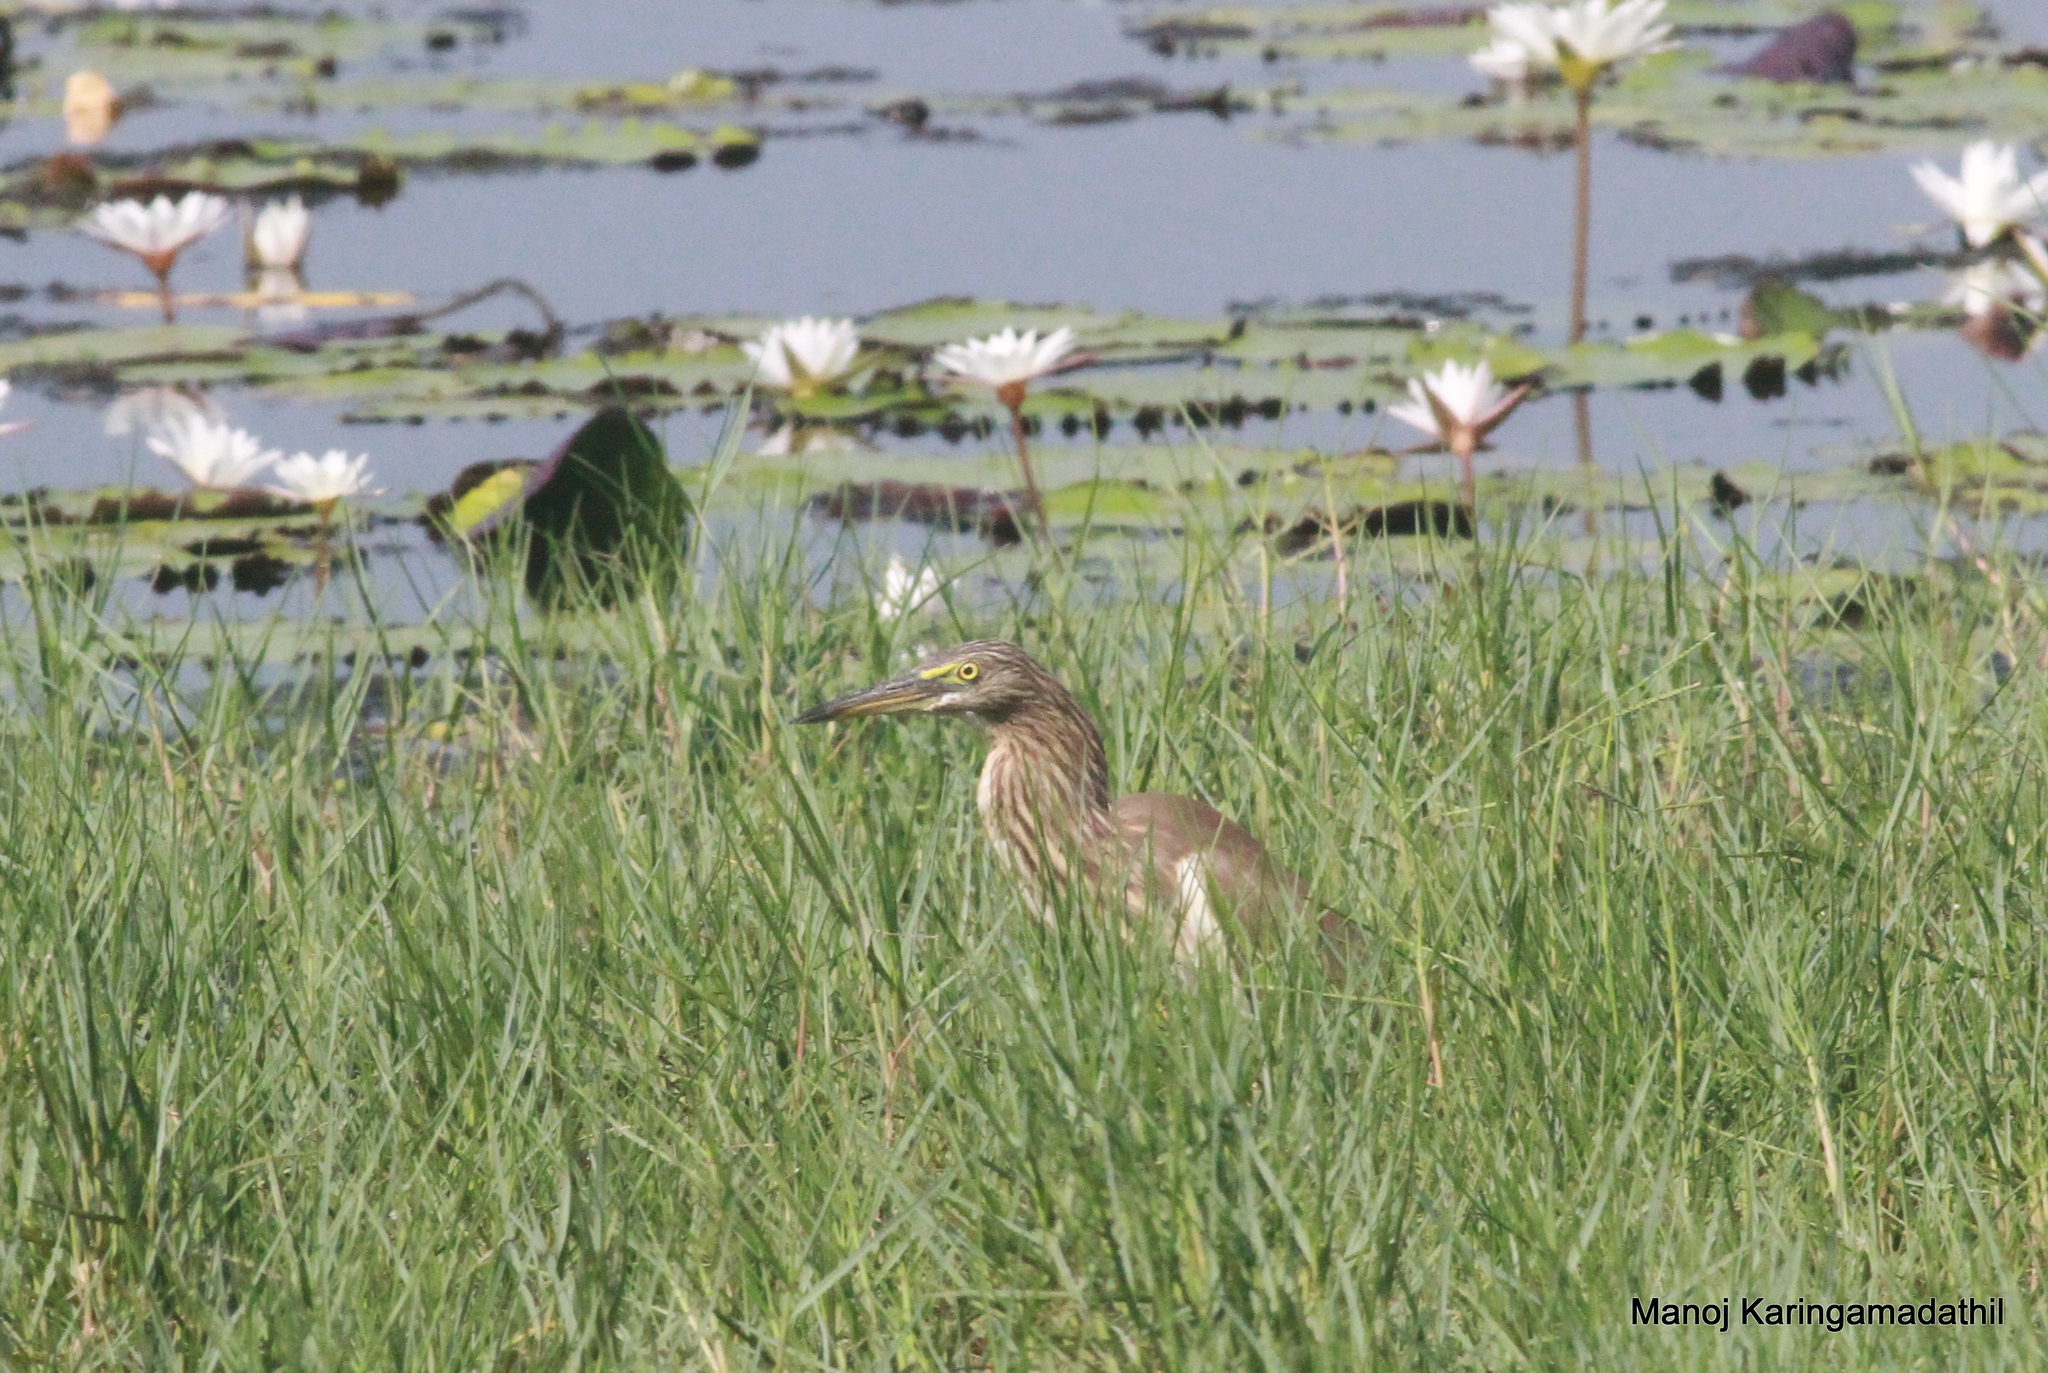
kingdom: Animalia
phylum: Chordata
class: Aves
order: Pelecaniformes
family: Ardeidae
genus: Ardeola
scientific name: Ardeola grayii
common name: Indian pond heron
